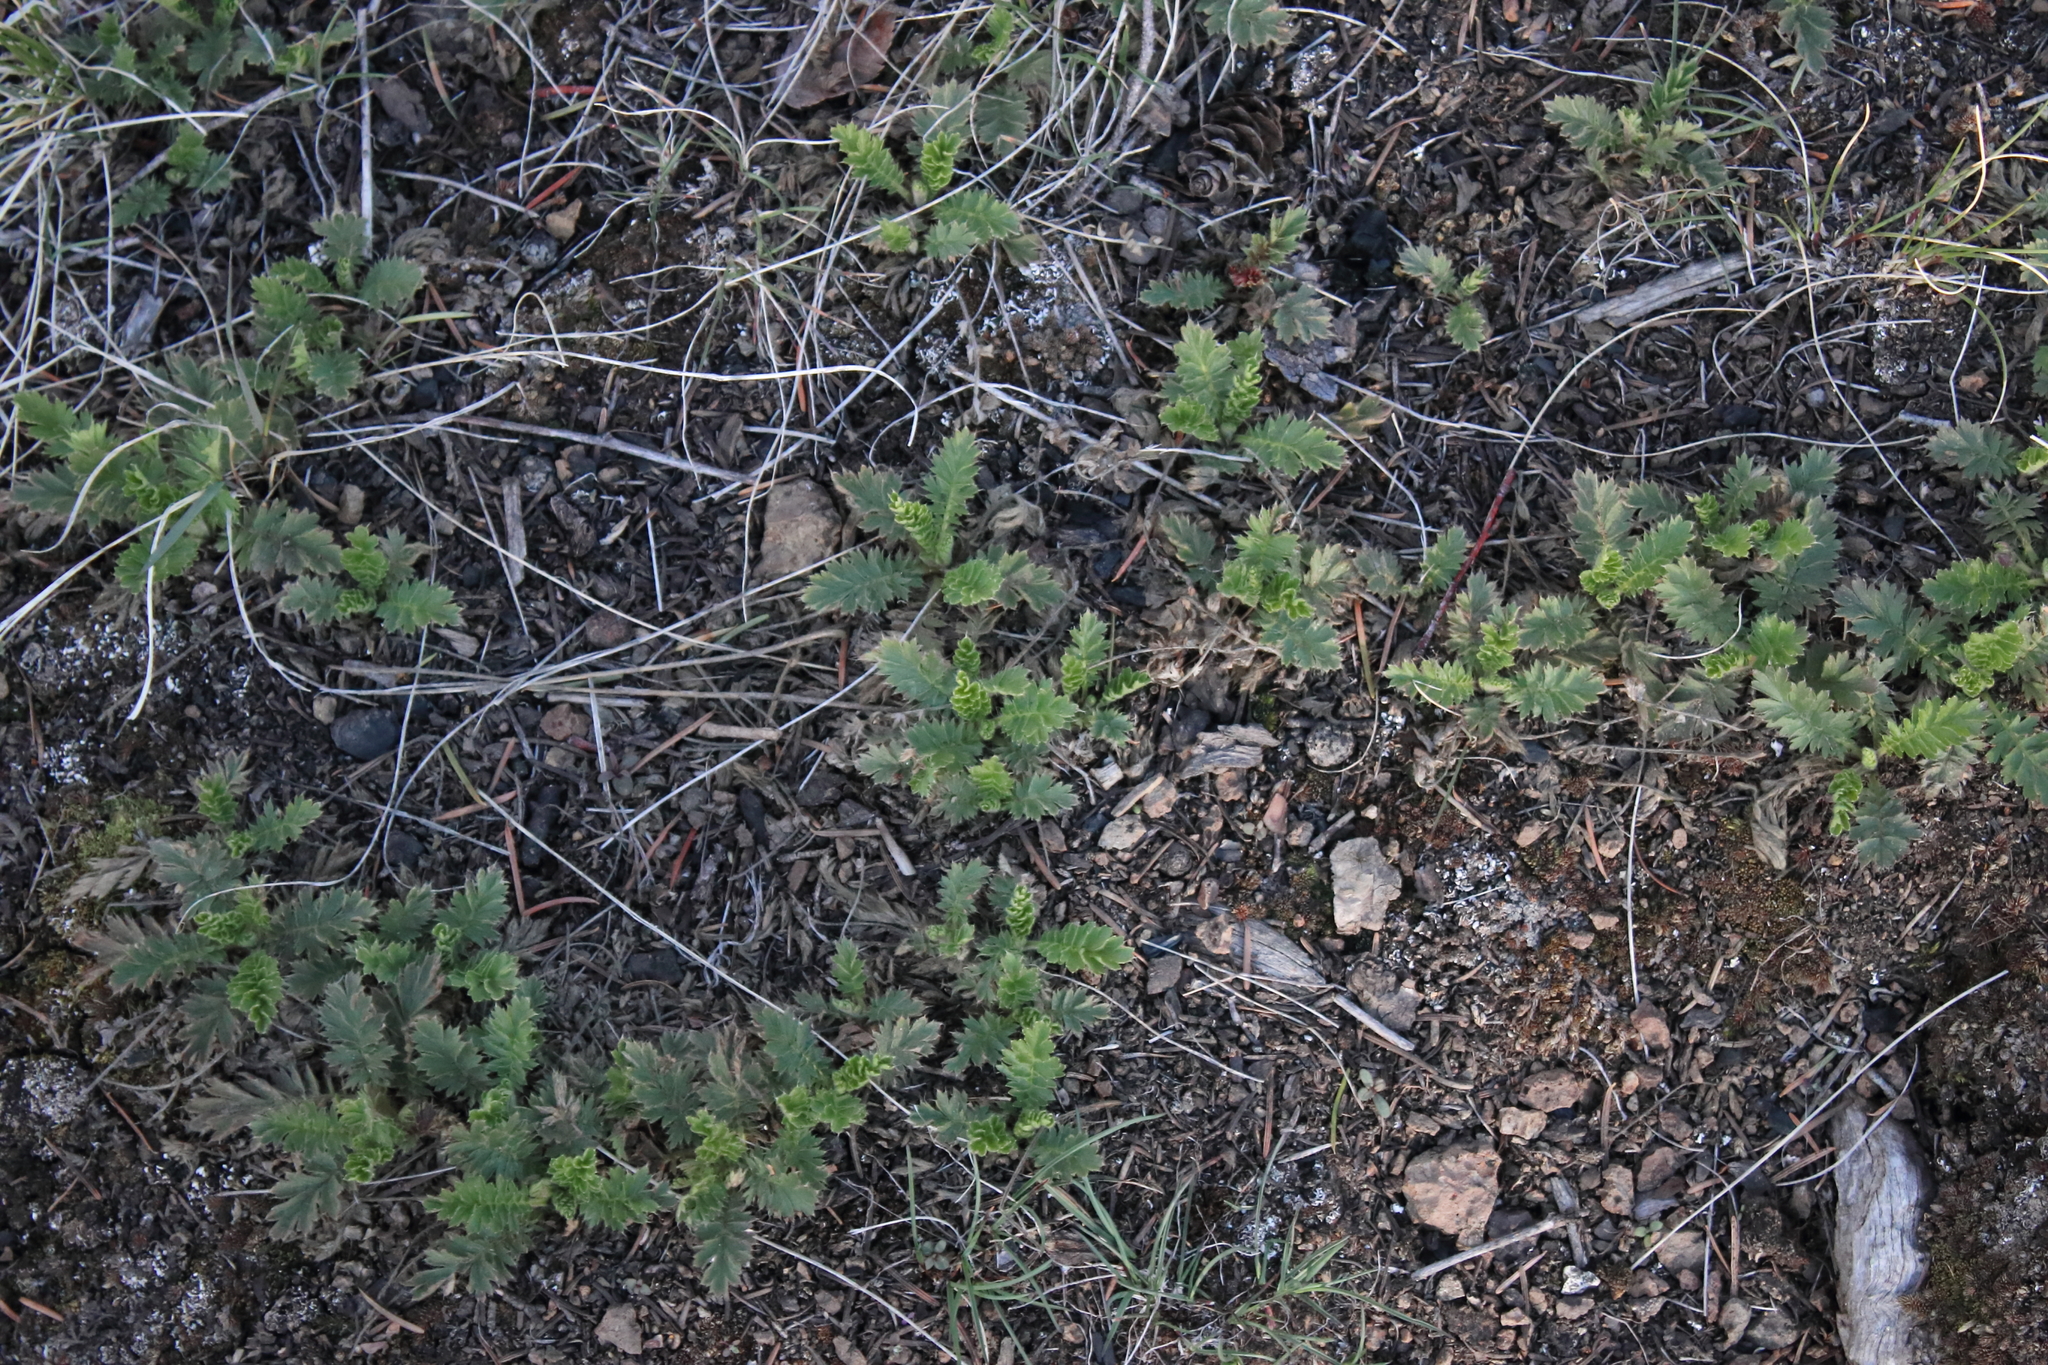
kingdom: Plantae
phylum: Tracheophyta
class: Magnoliopsida
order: Rosales
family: Rosaceae
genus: Geum
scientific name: Geum triflorum
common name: Old man's whiskers
